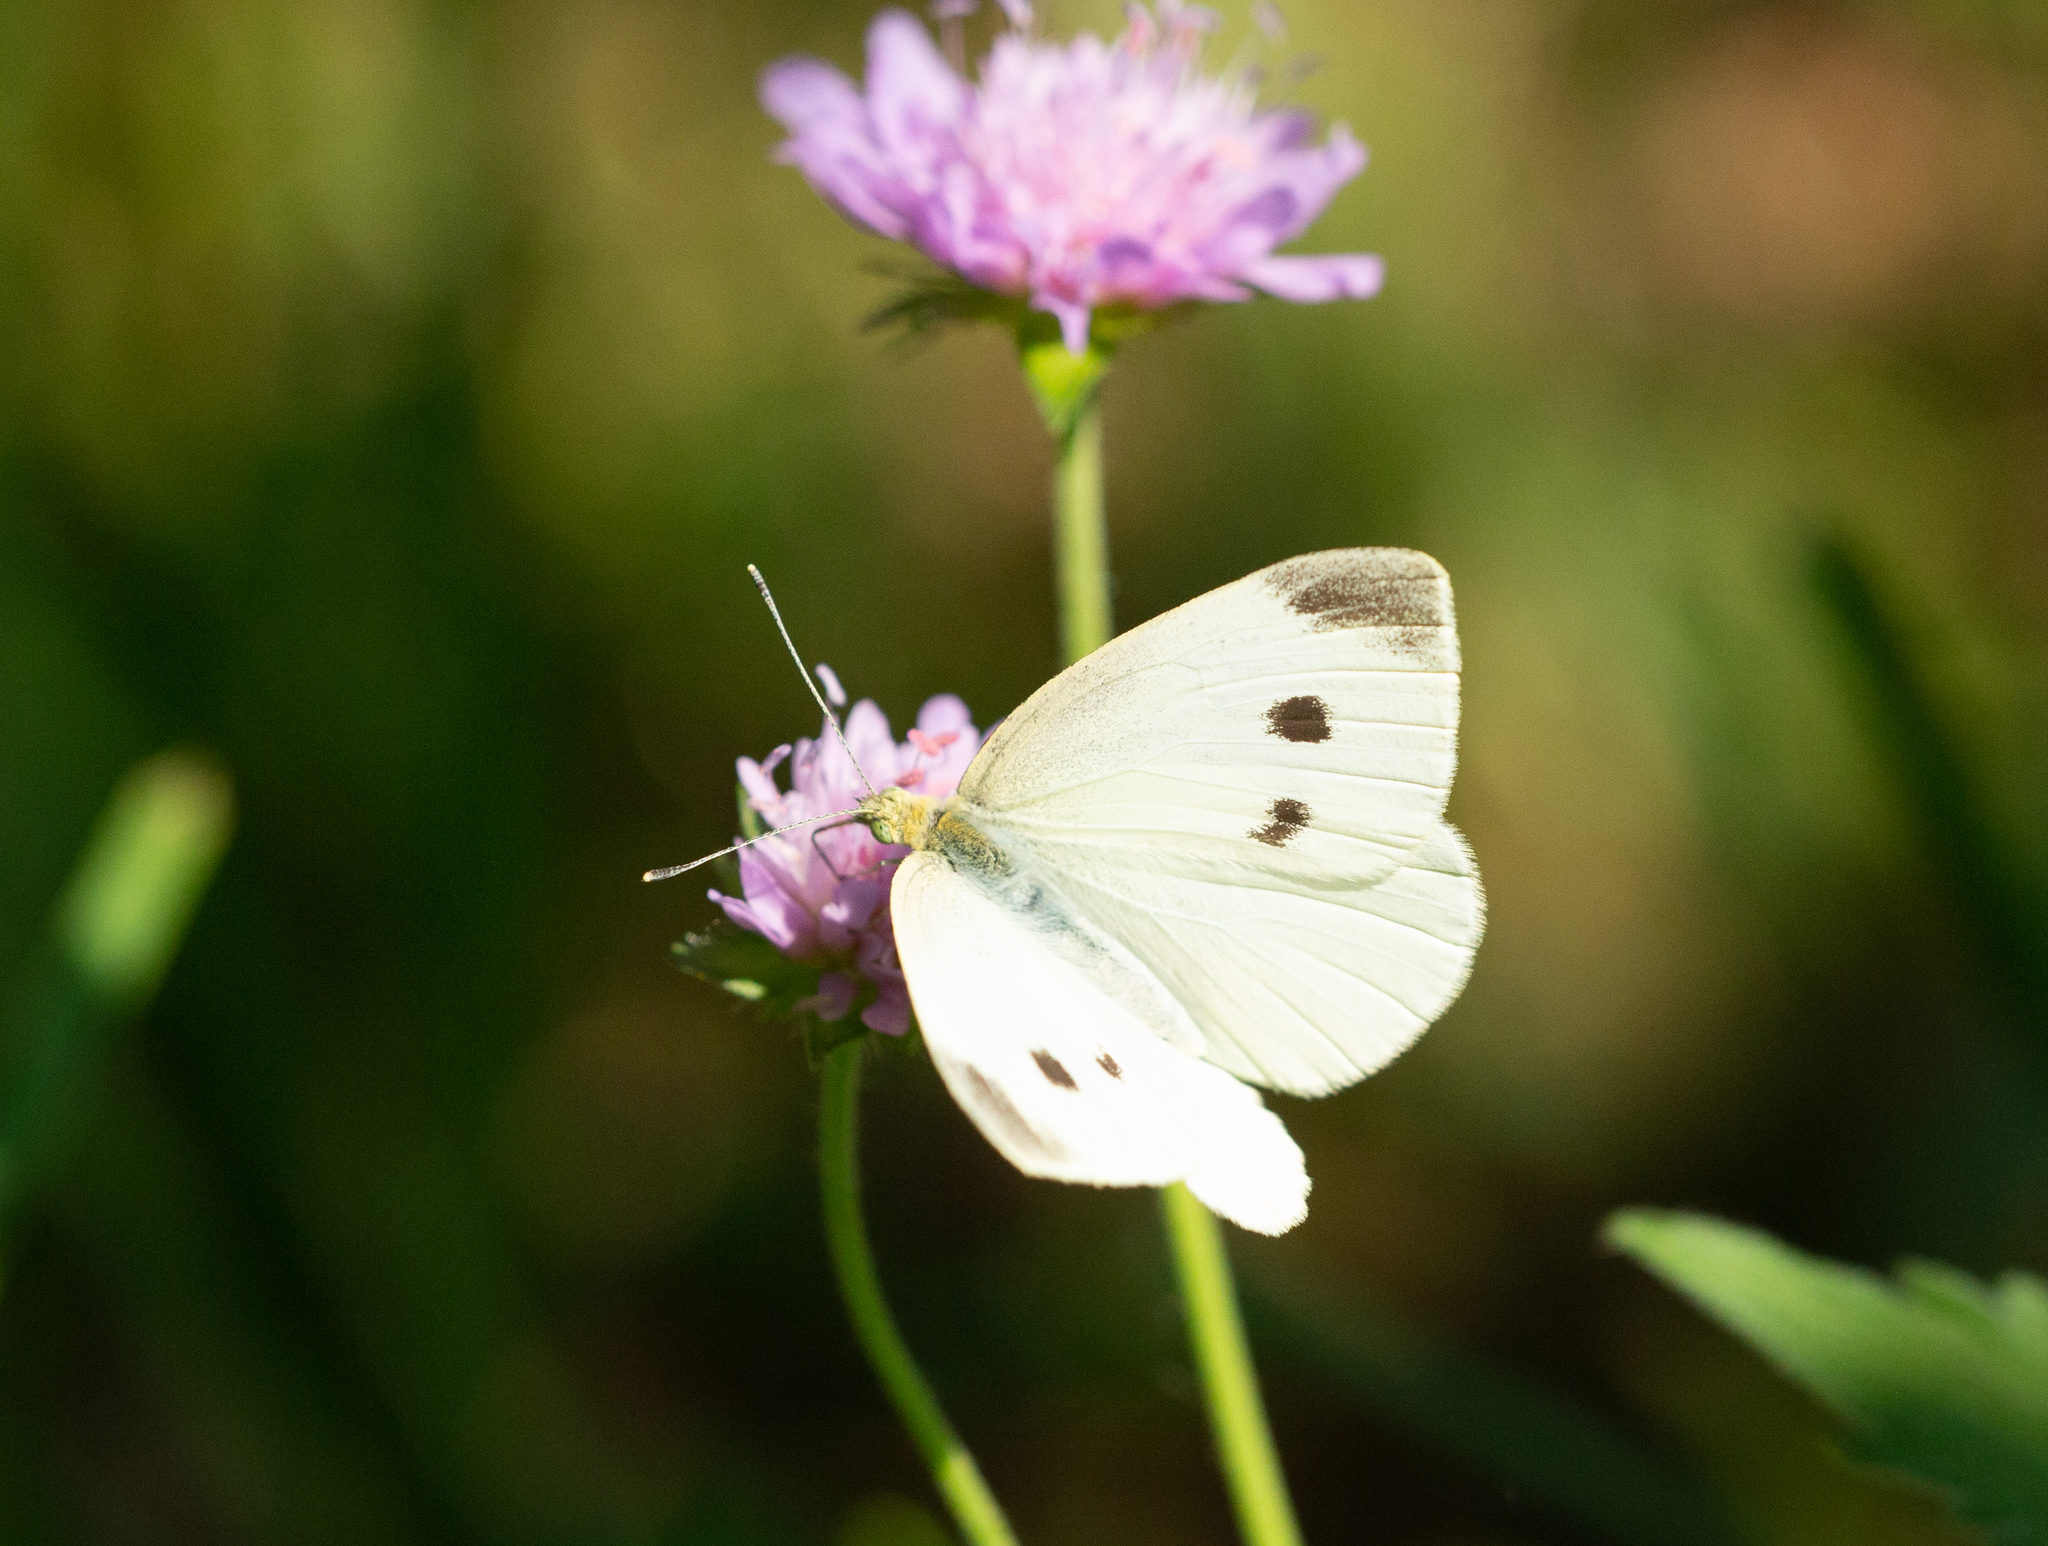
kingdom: Animalia
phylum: Arthropoda
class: Insecta
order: Lepidoptera
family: Pieridae
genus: Pieris
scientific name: Pieris rapae
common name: Small white
